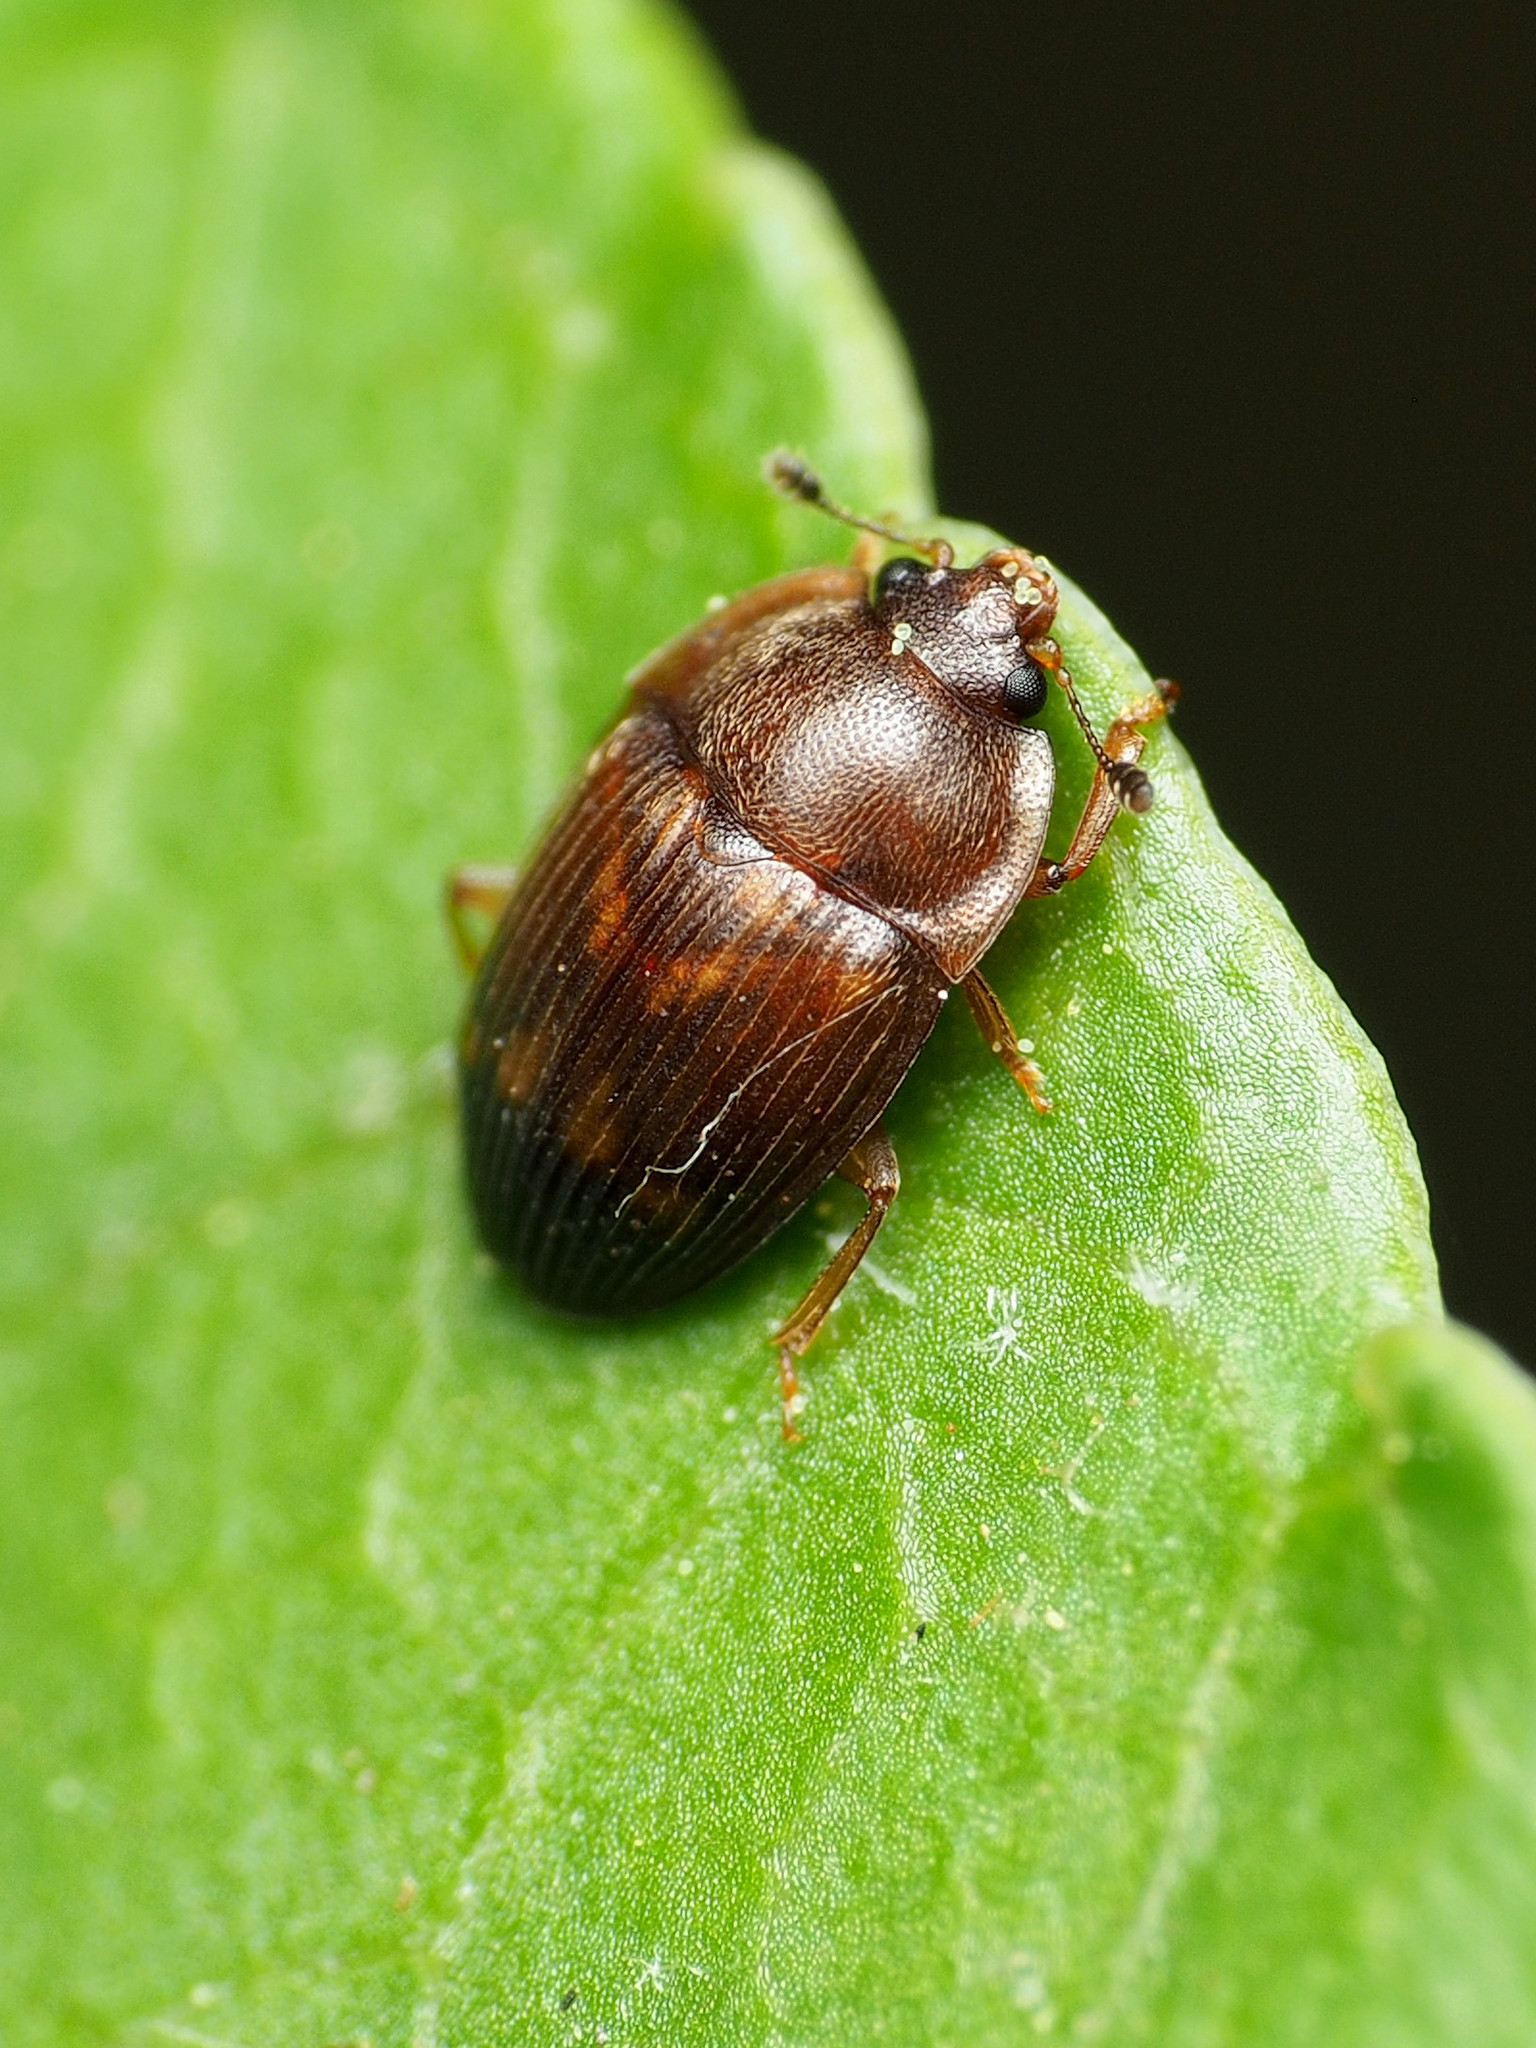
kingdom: Animalia
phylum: Arthropoda
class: Insecta
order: Coleoptera
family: Nitidulidae
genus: Stelidota
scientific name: Stelidota geminata
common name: Strawberry sap beetle
